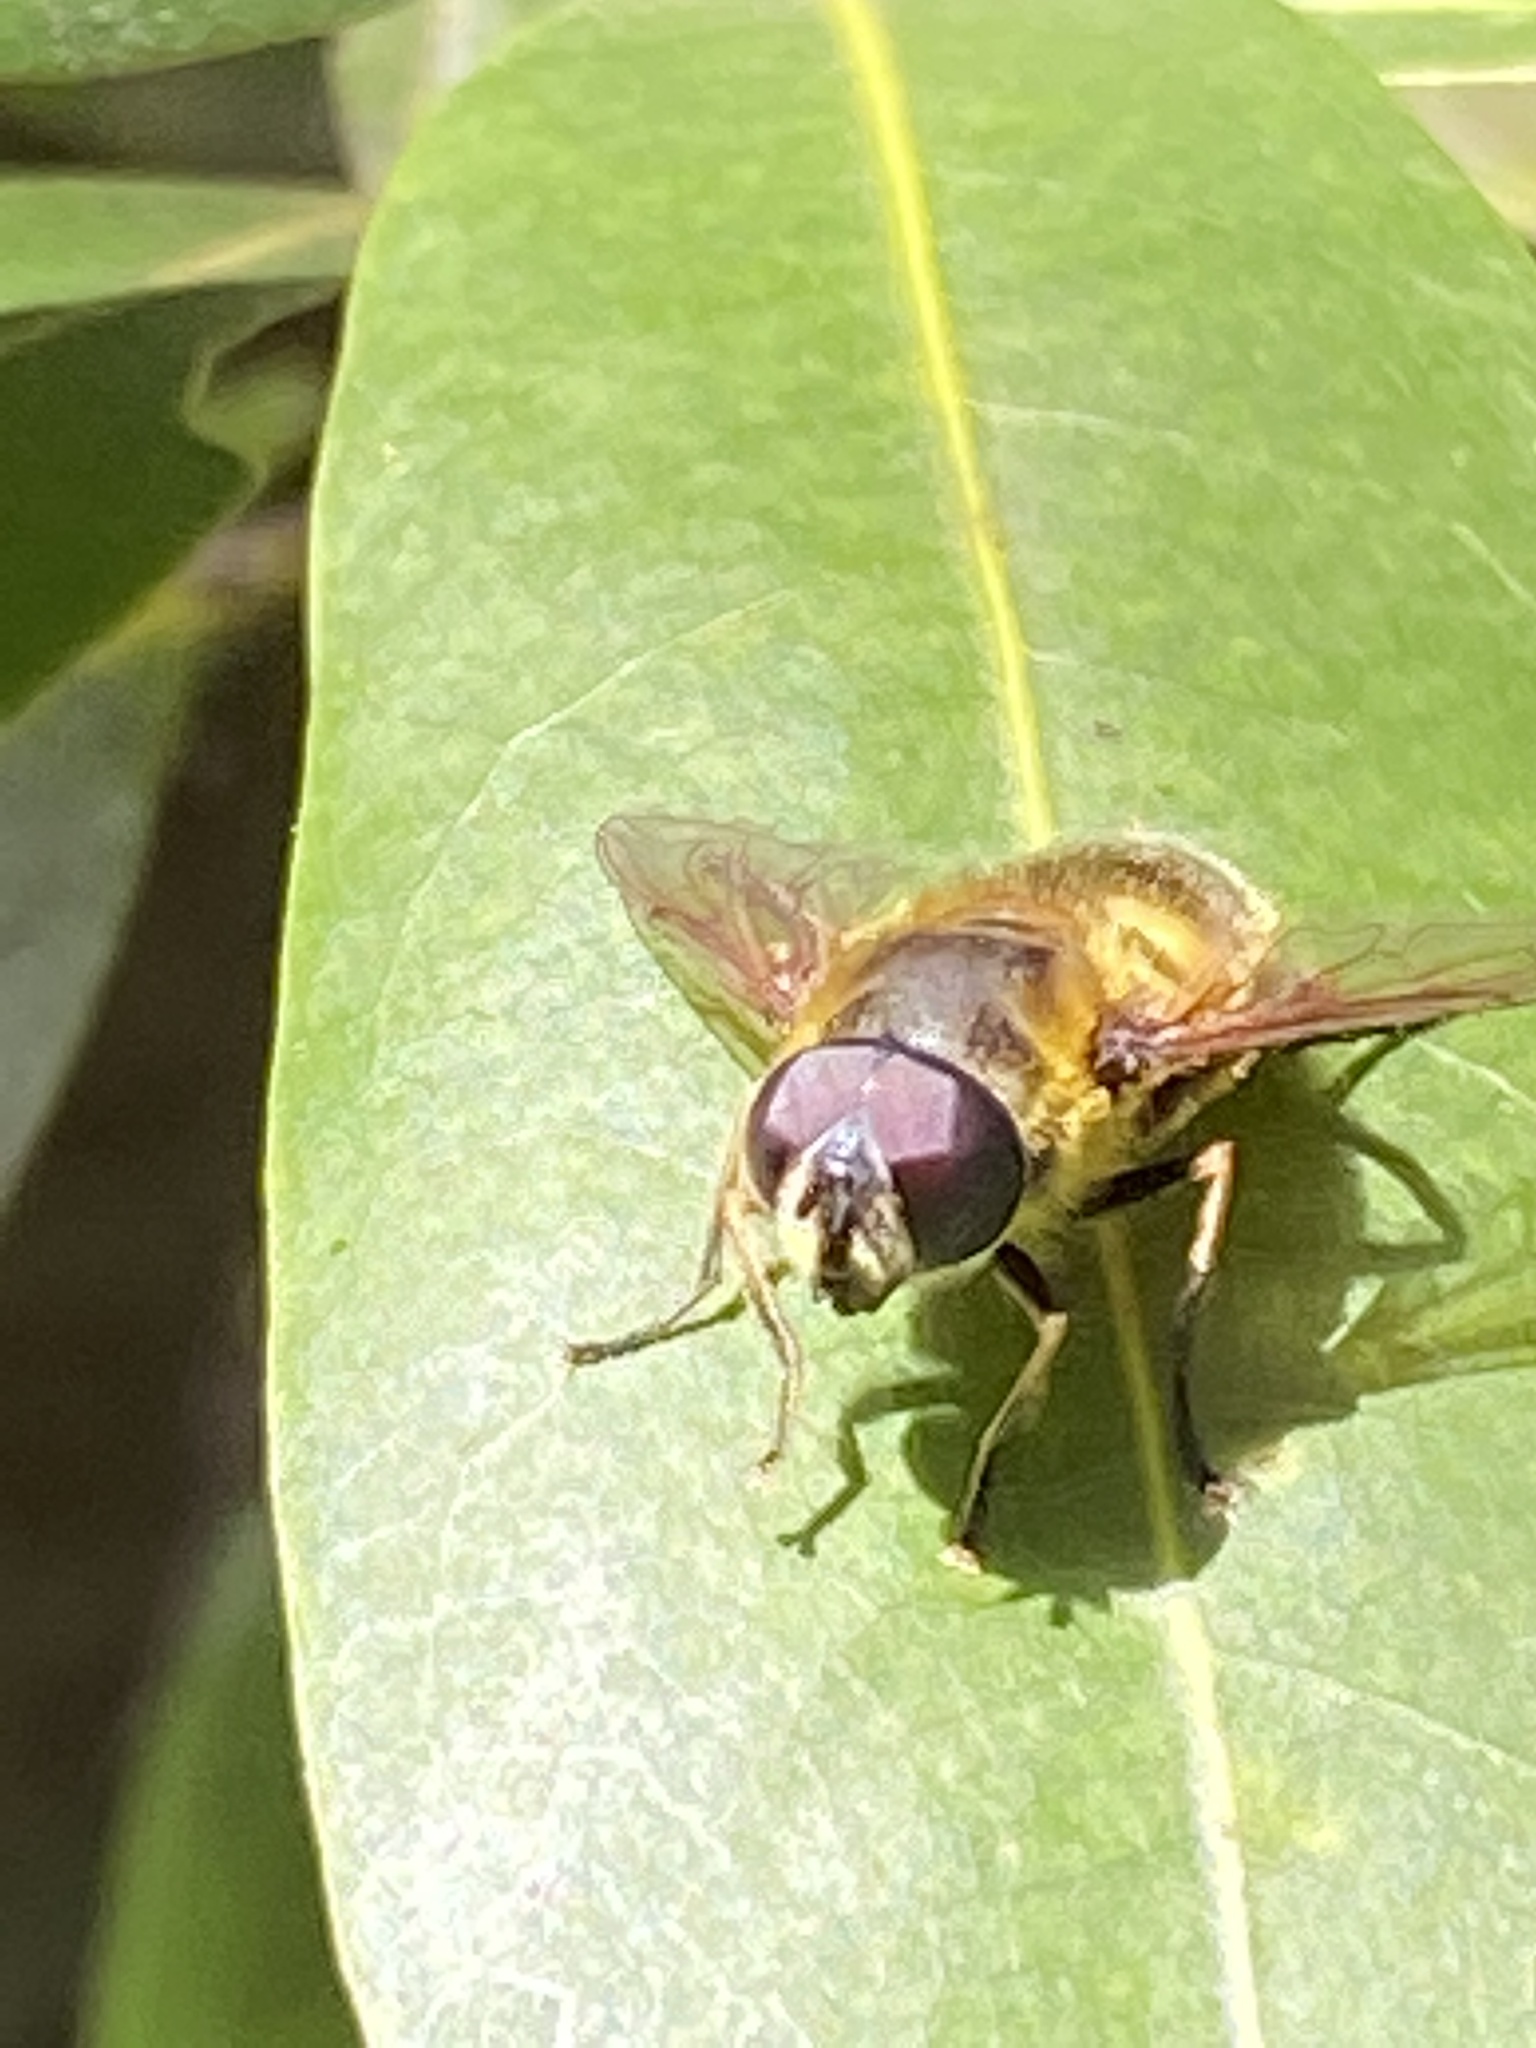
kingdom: Animalia
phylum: Arthropoda
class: Insecta
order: Diptera
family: Syrphidae
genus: Myathropa
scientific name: Myathropa florea
